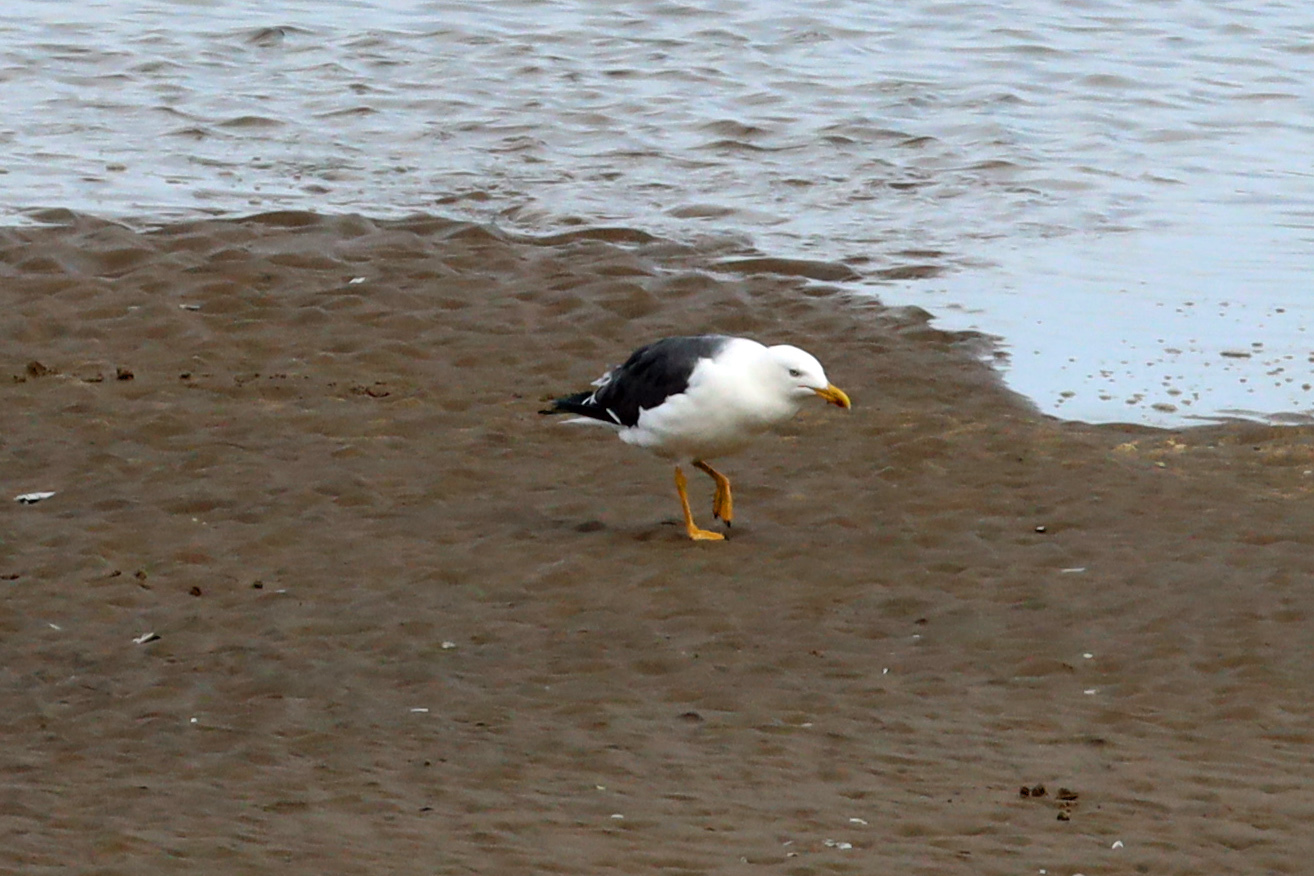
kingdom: Animalia
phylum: Chordata
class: Aves
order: Charadriiformes
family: Laridae
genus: Larus
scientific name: Larus fuscus
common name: Lesser black-backed gull
